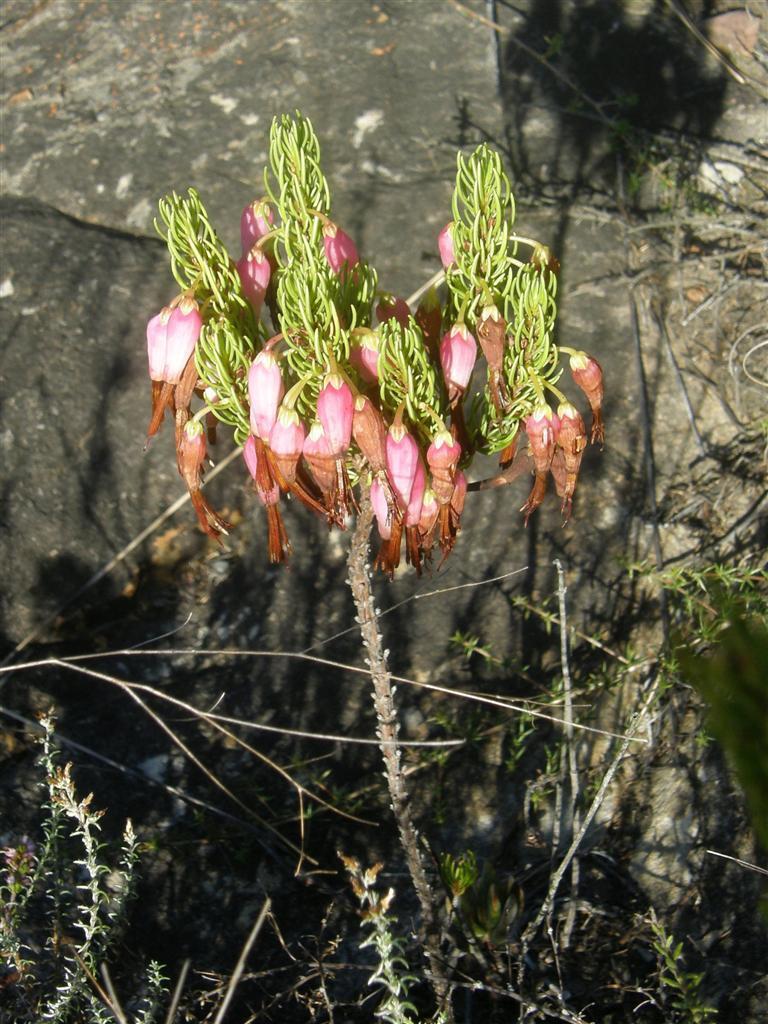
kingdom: Plantae
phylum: Tracheophyta
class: Magnoliopsida
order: Ericales
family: Ericaceae
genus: Erica
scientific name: Erica plukenetii
